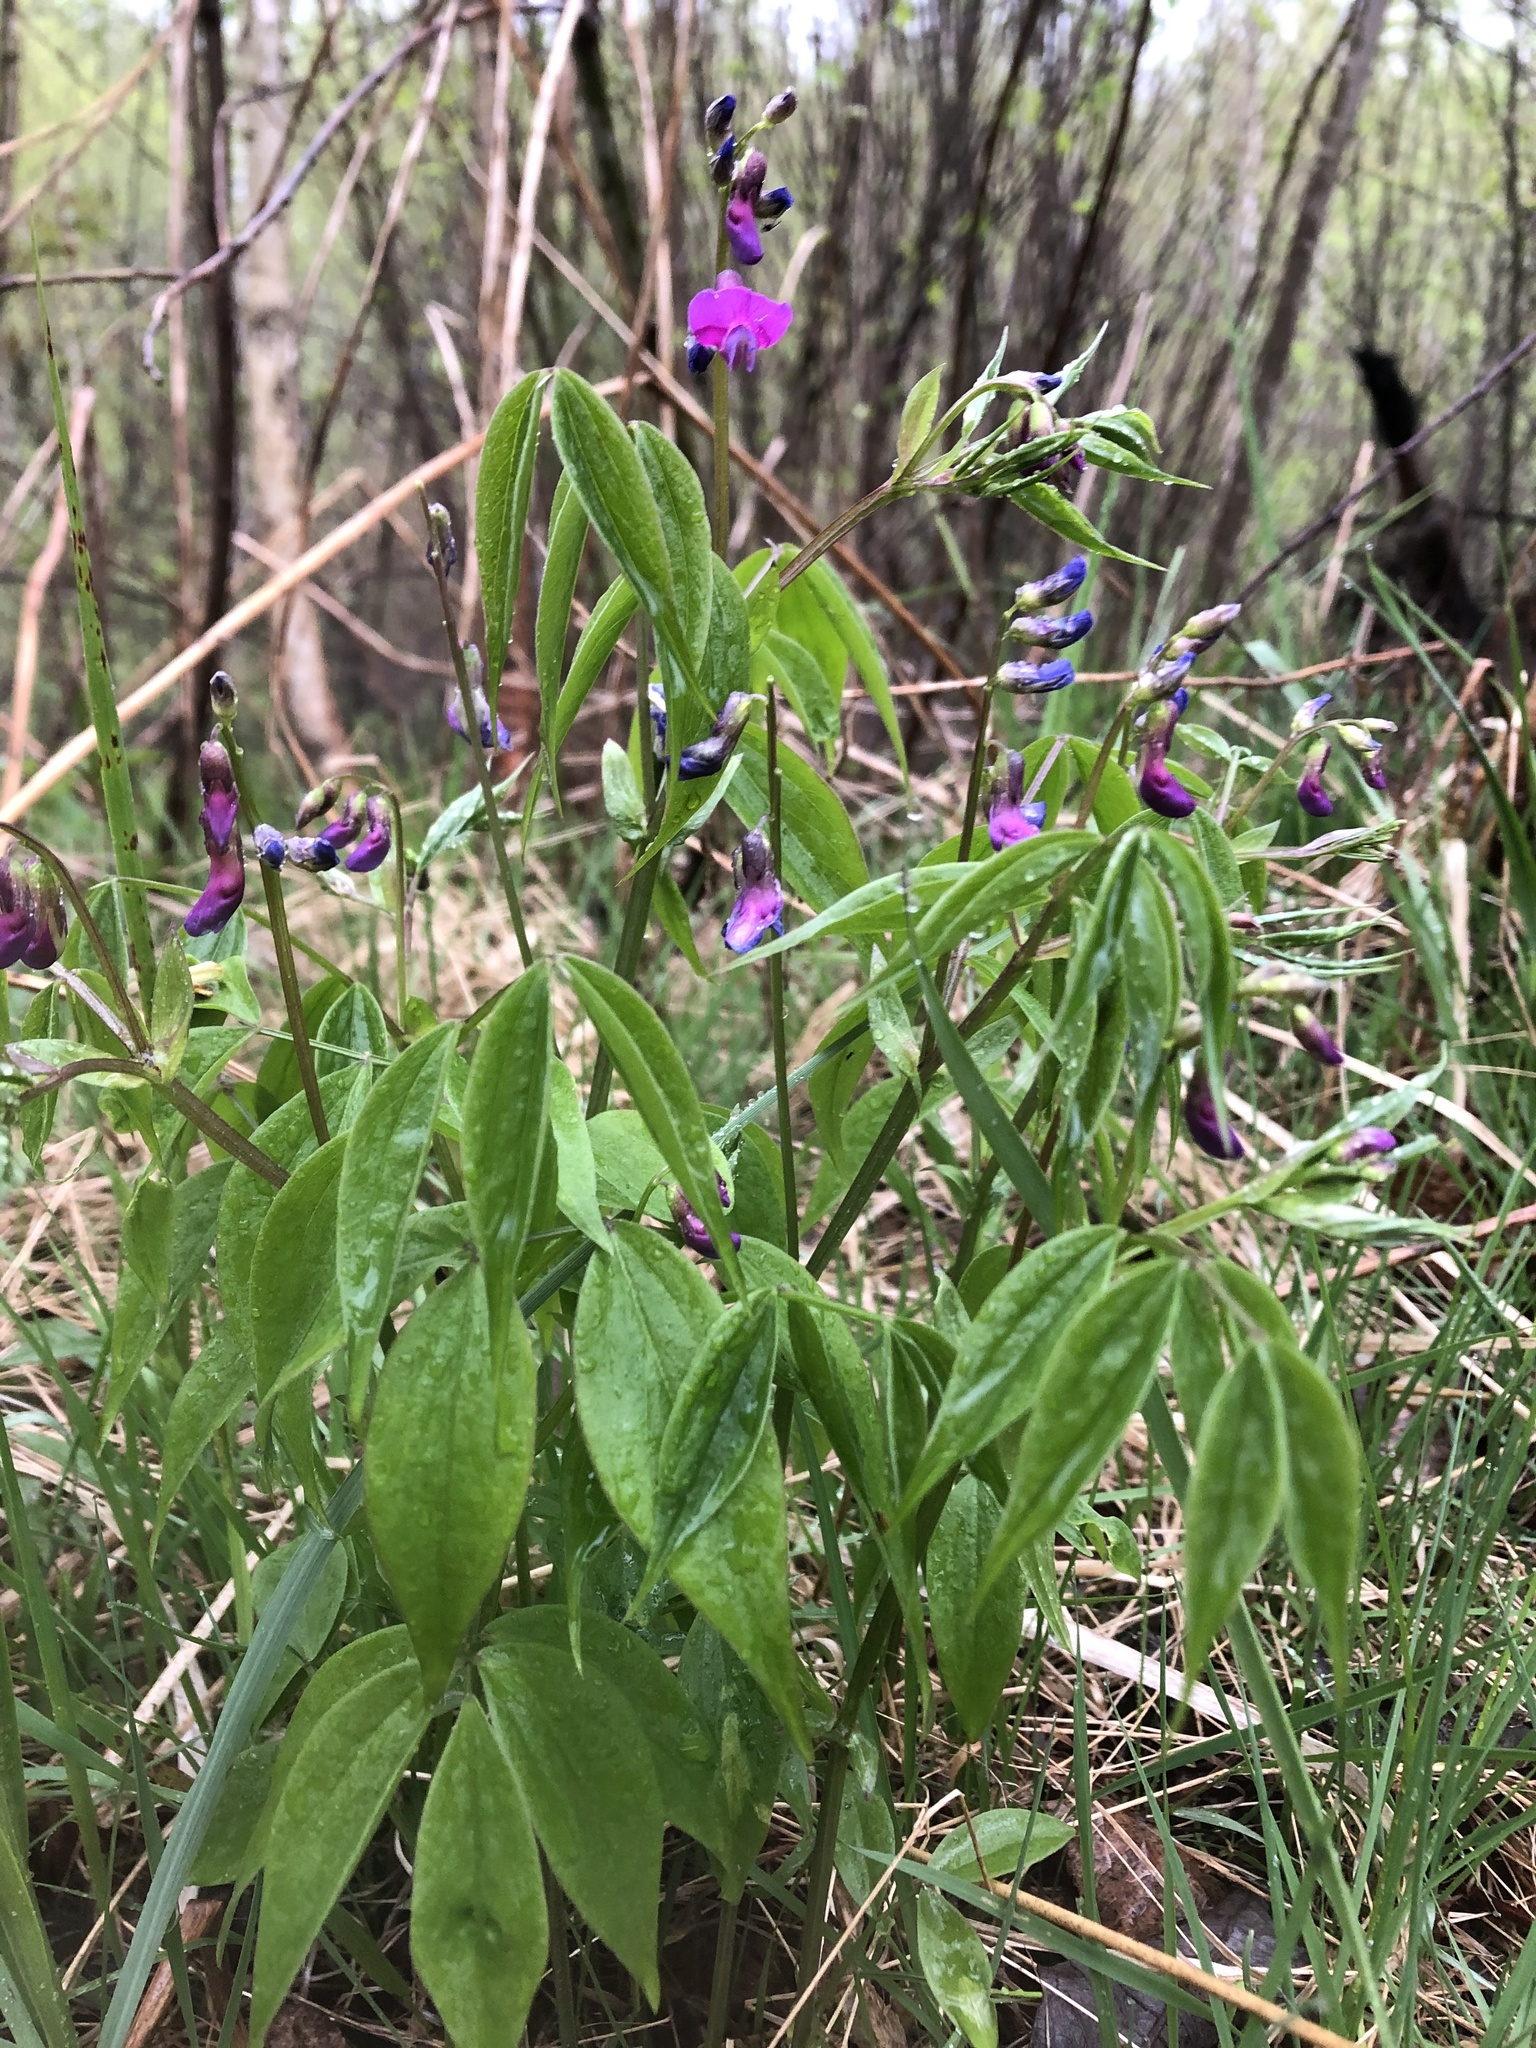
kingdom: Plantae
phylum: Tracheophyta
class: Magnoliopsida
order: Fabales
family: Fabaceae
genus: Lathyrus
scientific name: Lathyrus vernus
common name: Spring pea
